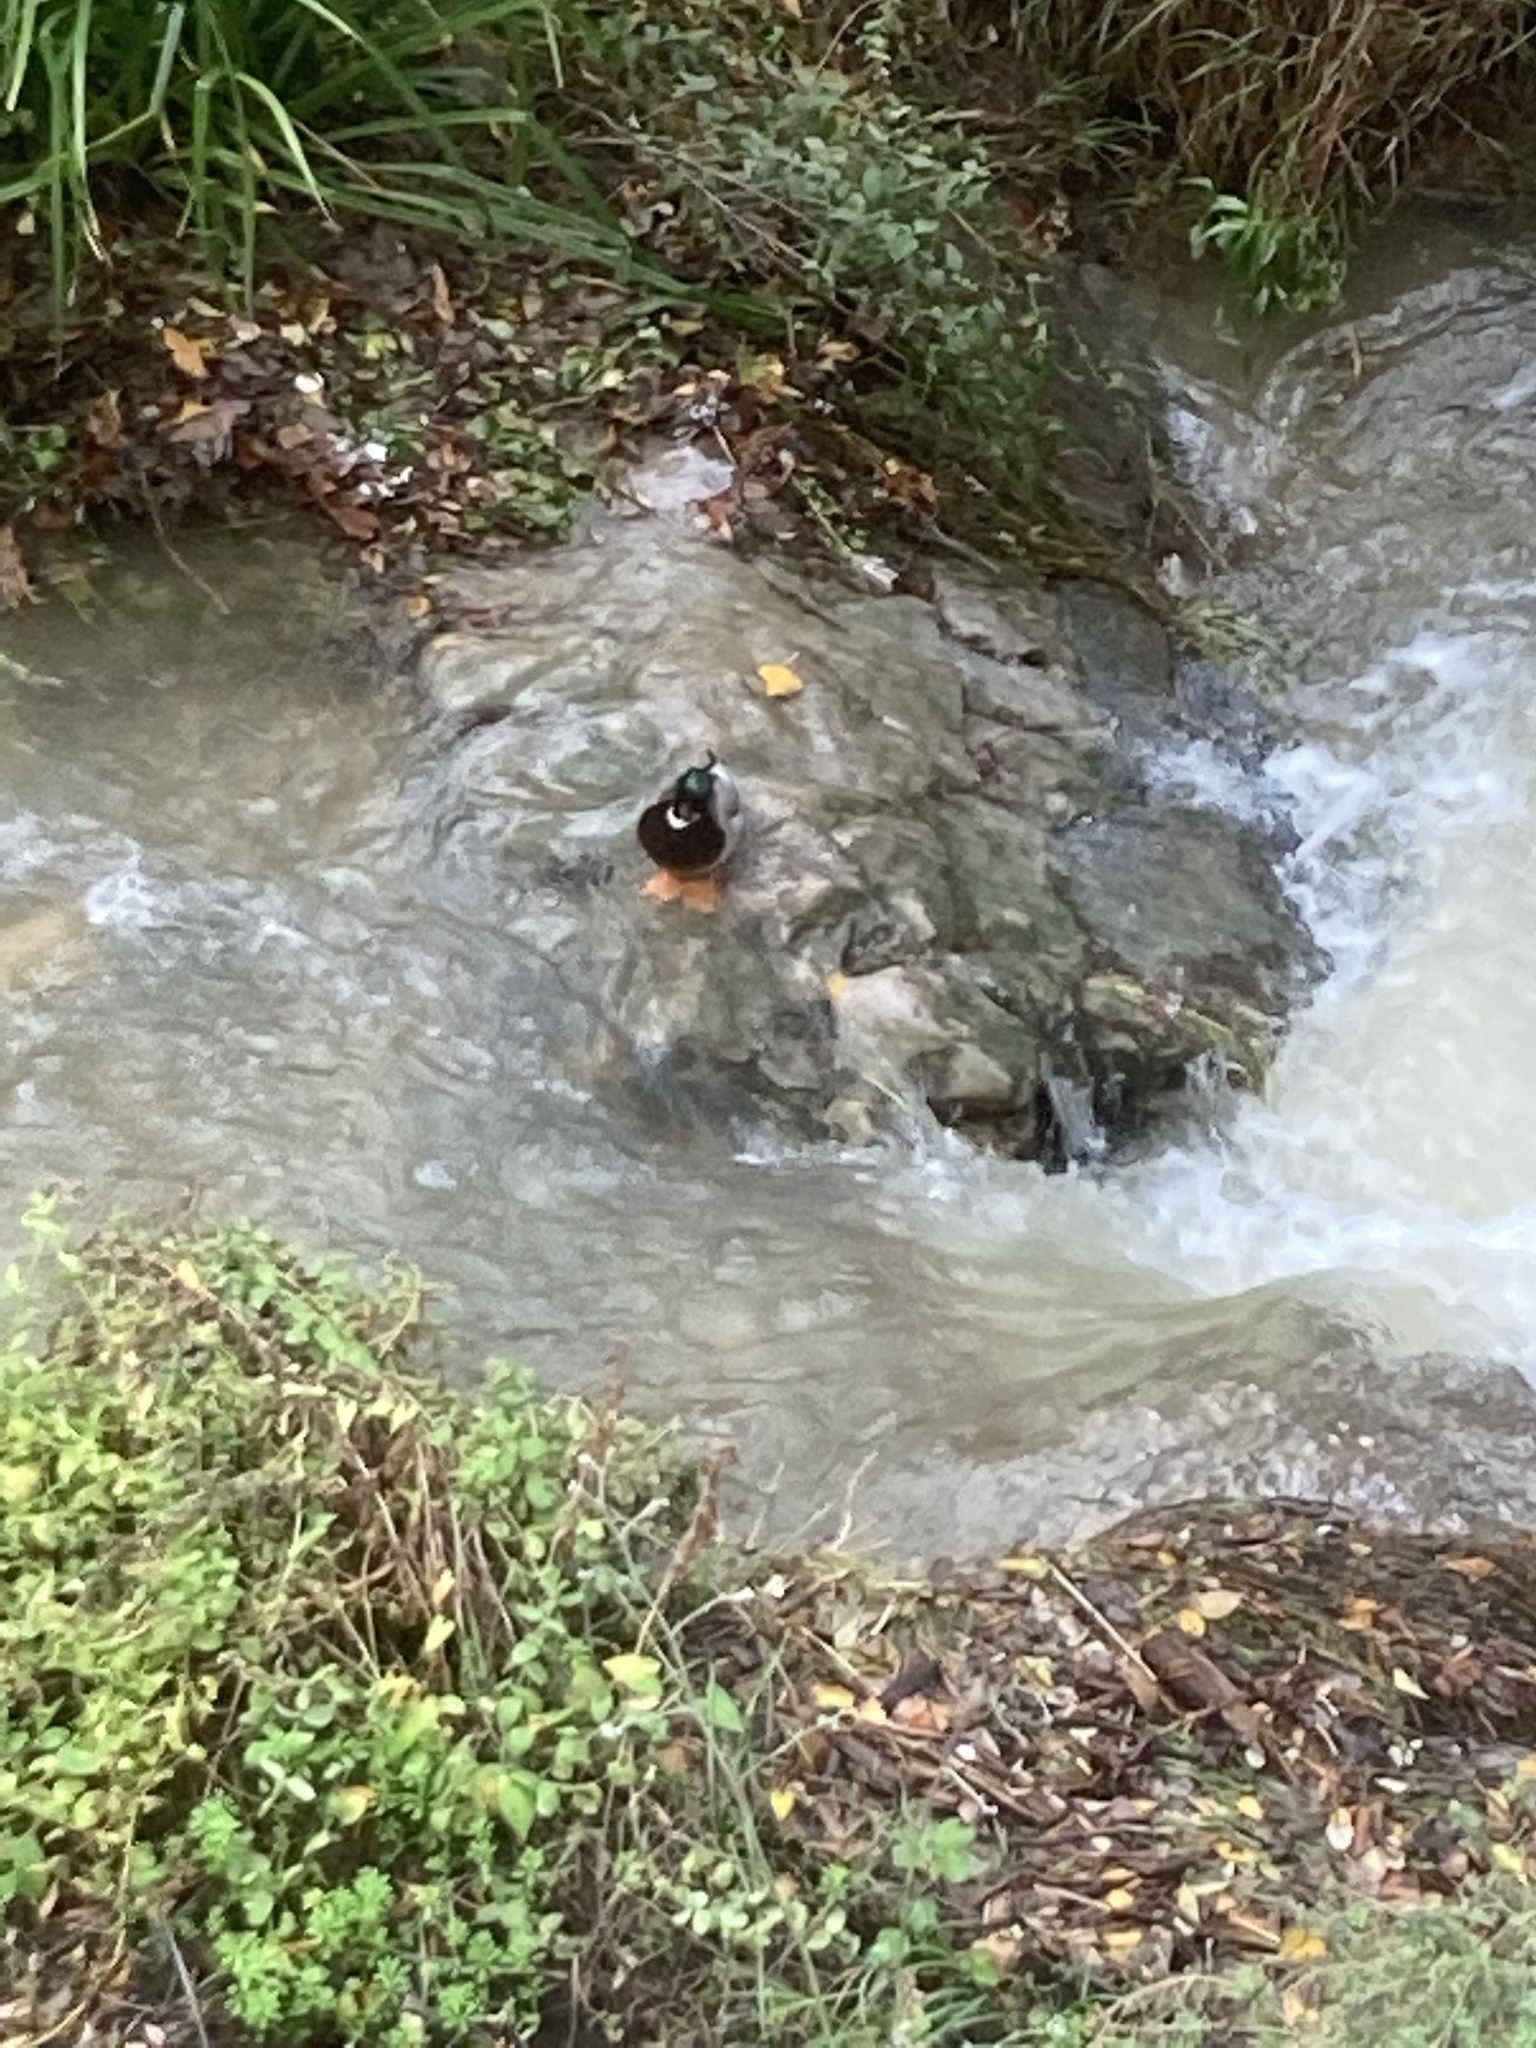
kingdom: Animalia
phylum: Chordata
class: Aves
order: Anseriformes
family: Anatidae
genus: Anas
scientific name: Anas platyrhynchos
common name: Mallard
